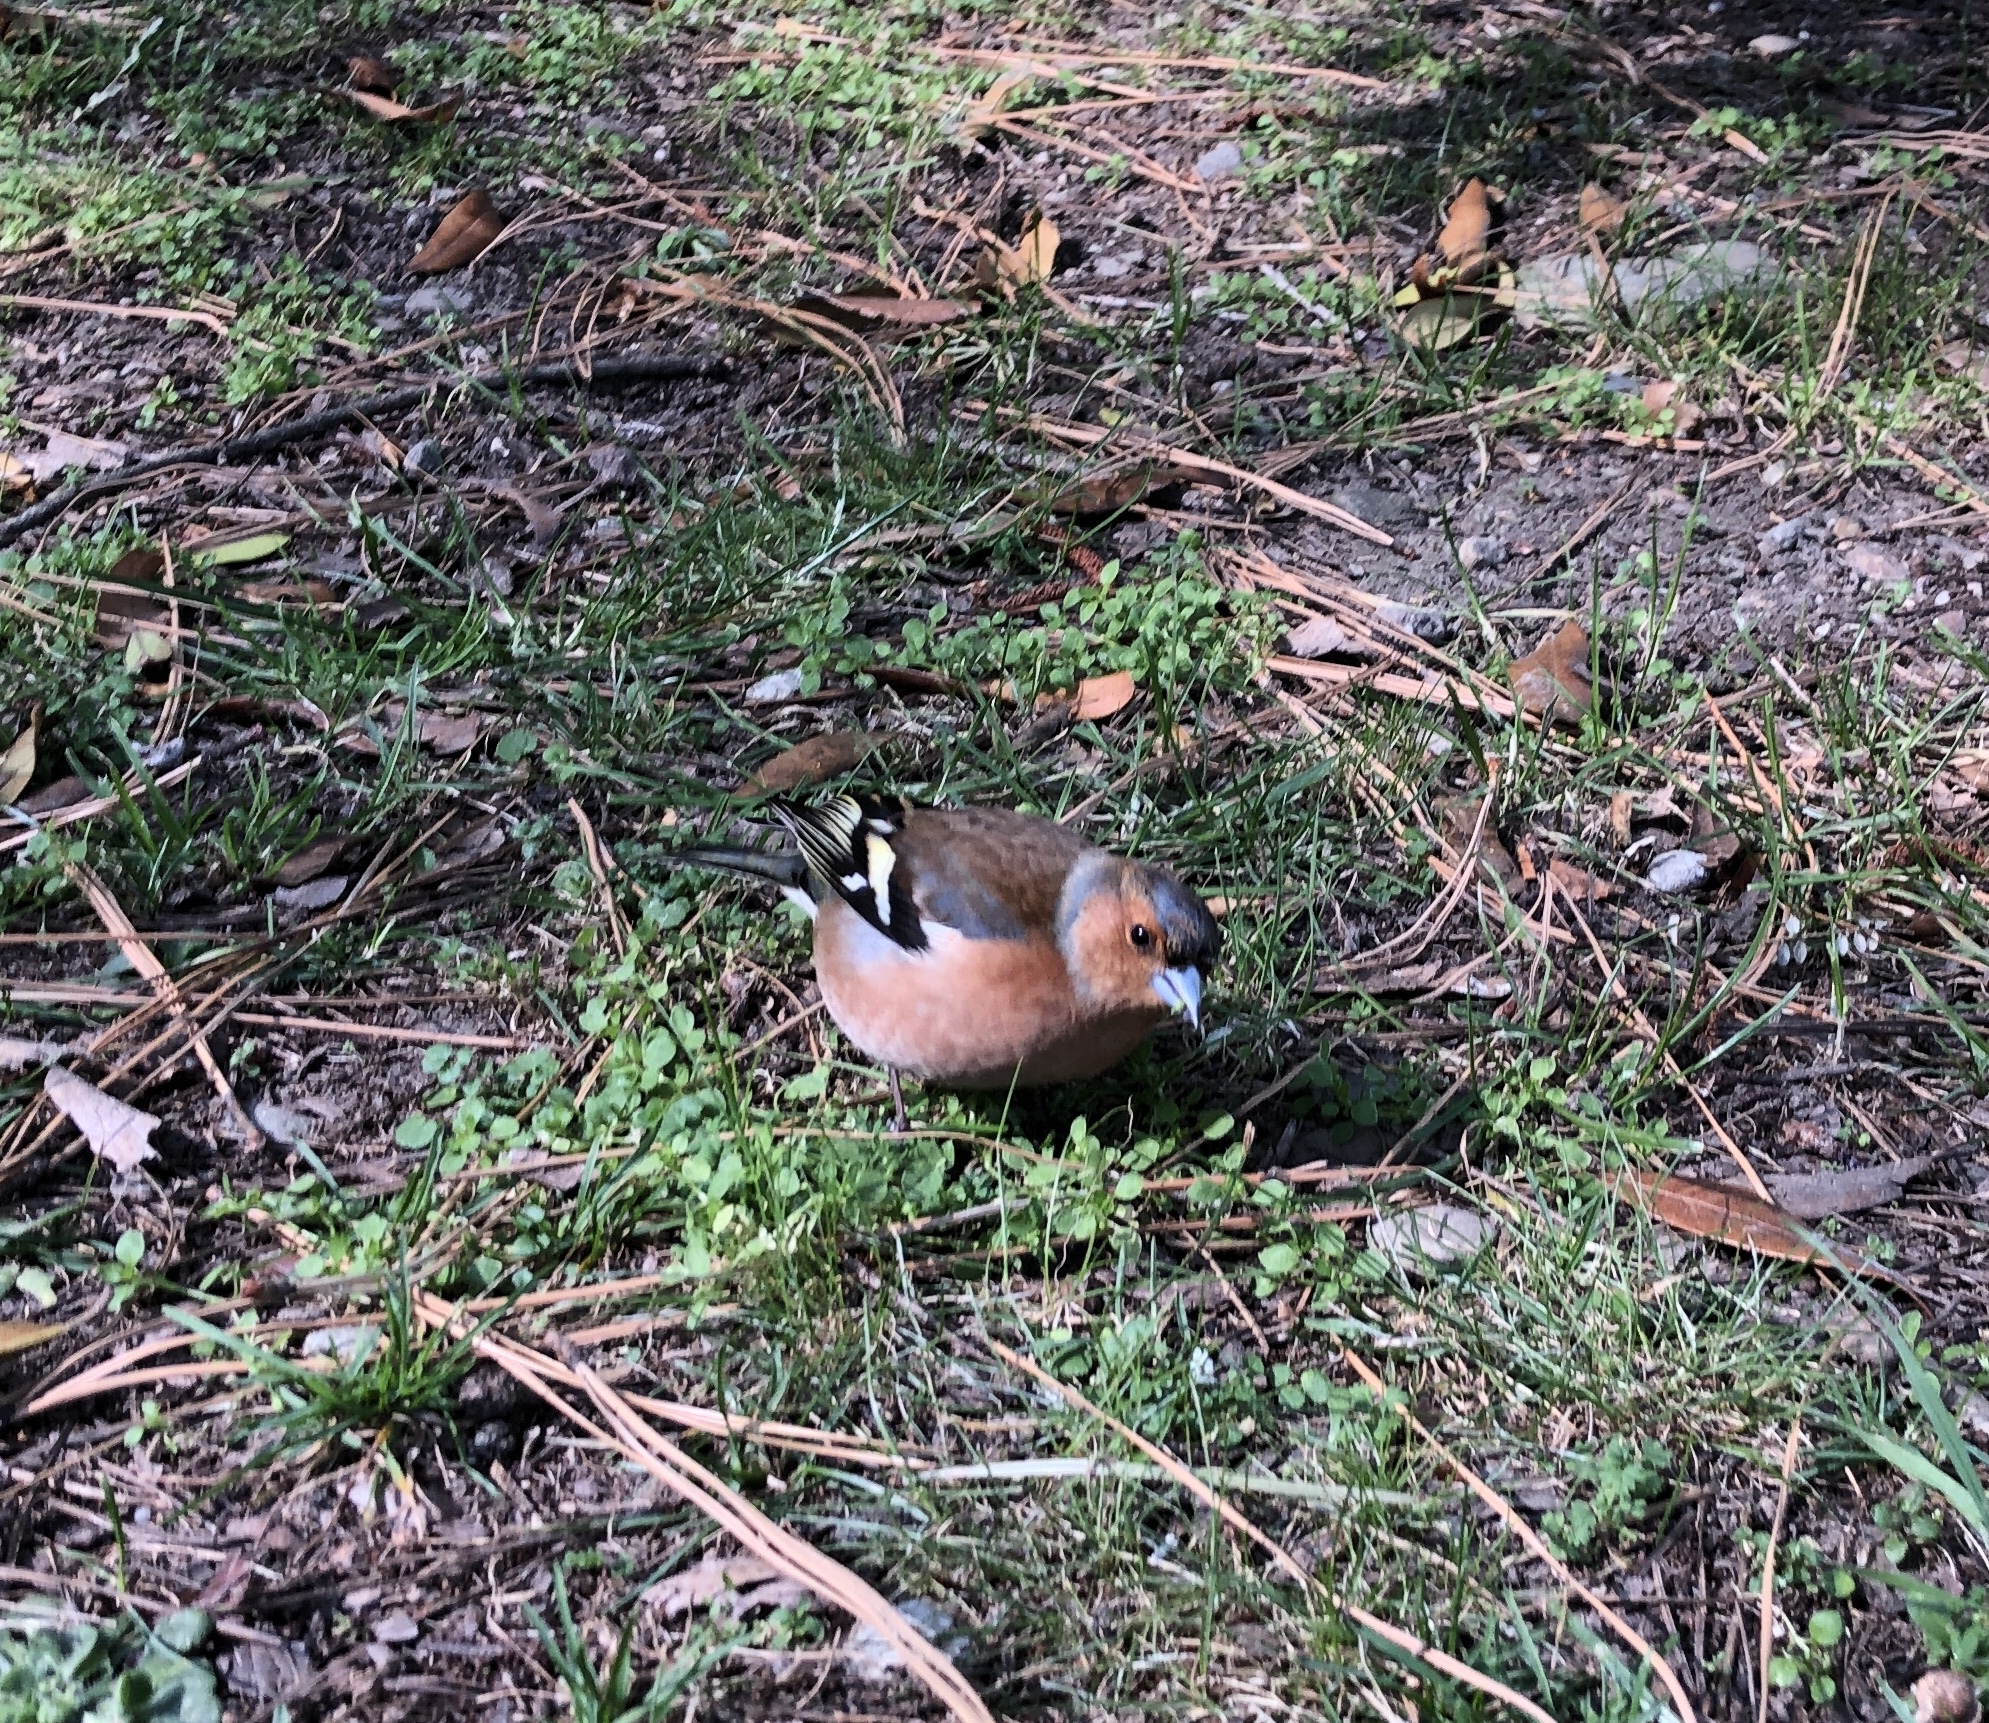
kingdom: Animalia
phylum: Chordata
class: Aves
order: Passeriformes
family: Fringillidae
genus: Fringilla
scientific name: Fringilla coelebs
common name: Common chaffinch
